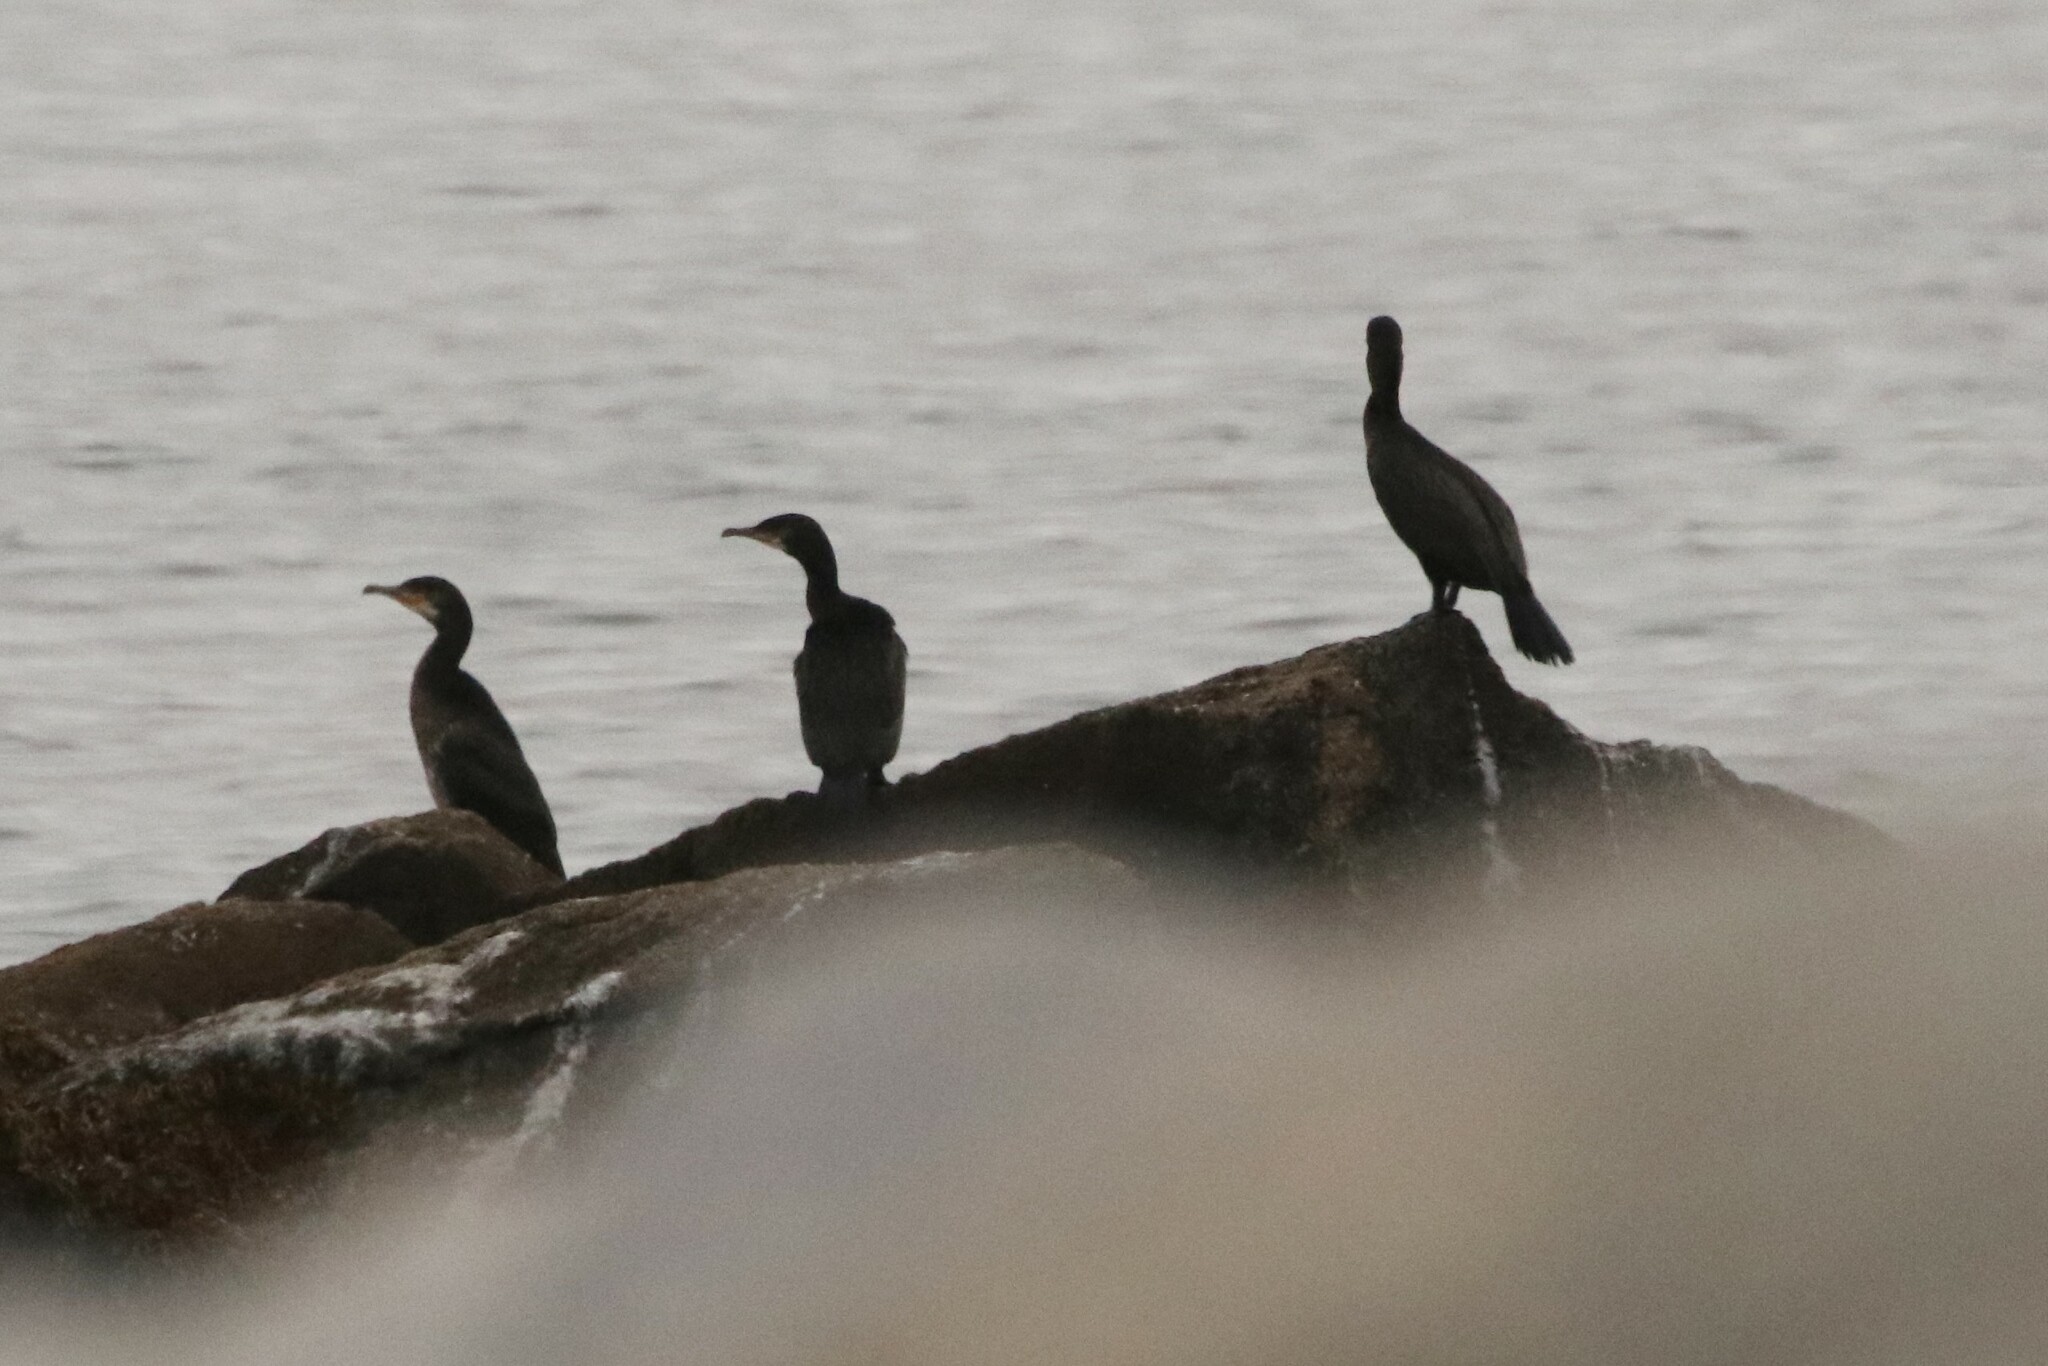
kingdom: Animalia
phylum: Chordata
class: Aves
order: Suliformes
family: Phalacrocoracidae
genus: Phalacrocorax
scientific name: Phalacrocorax carbo
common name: Great cormorant
